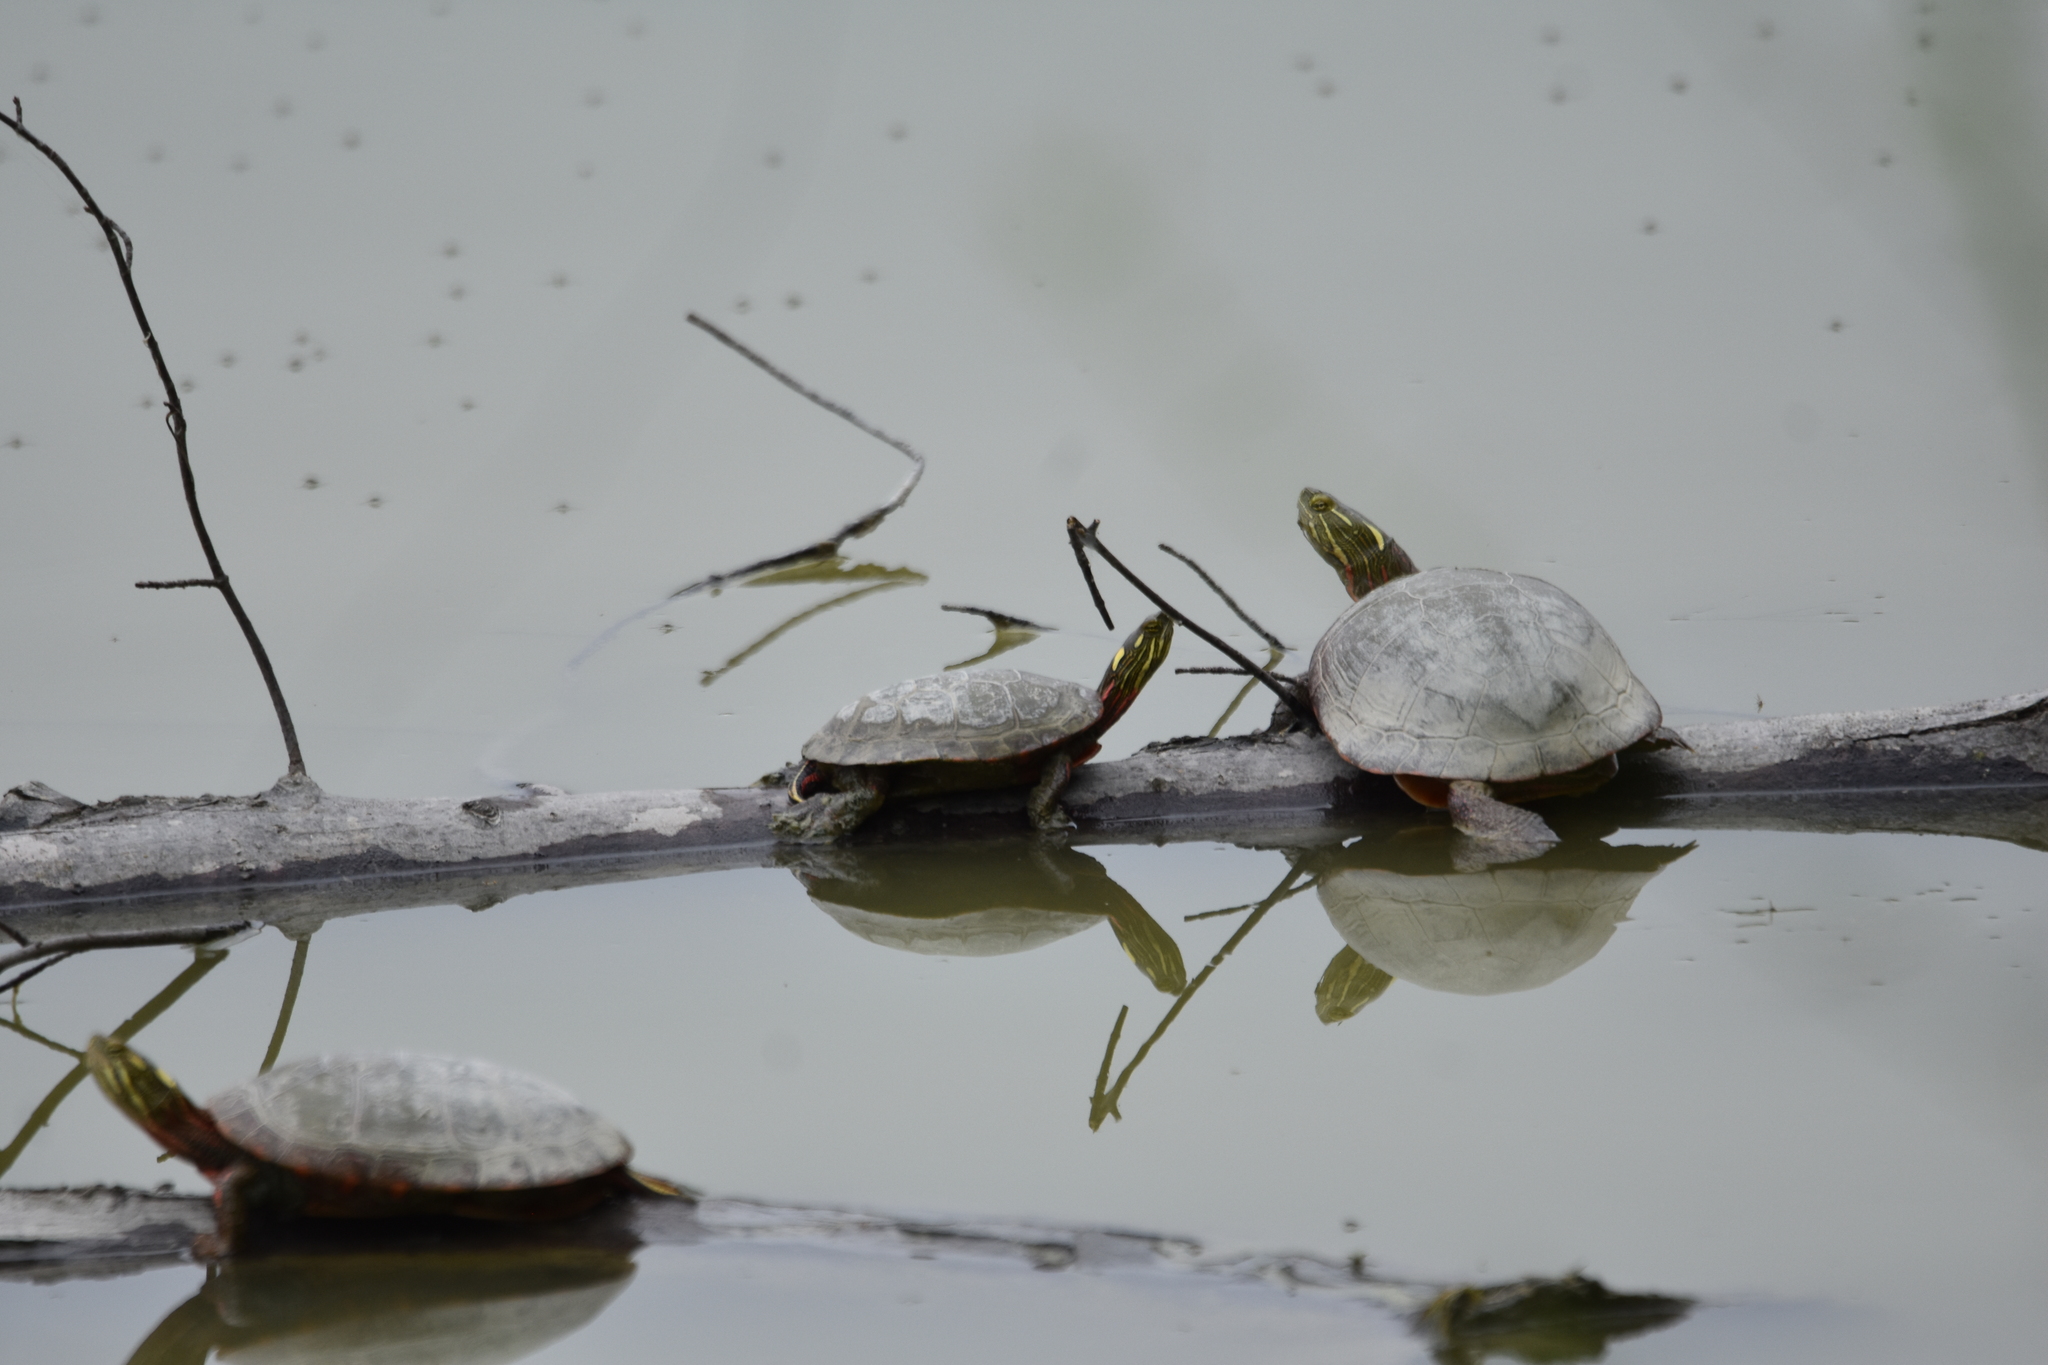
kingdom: Animalia
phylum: Chordata
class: Testudines
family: Emydidae
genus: Chrysemys
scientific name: Chrysemys picta
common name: Painted turtle
